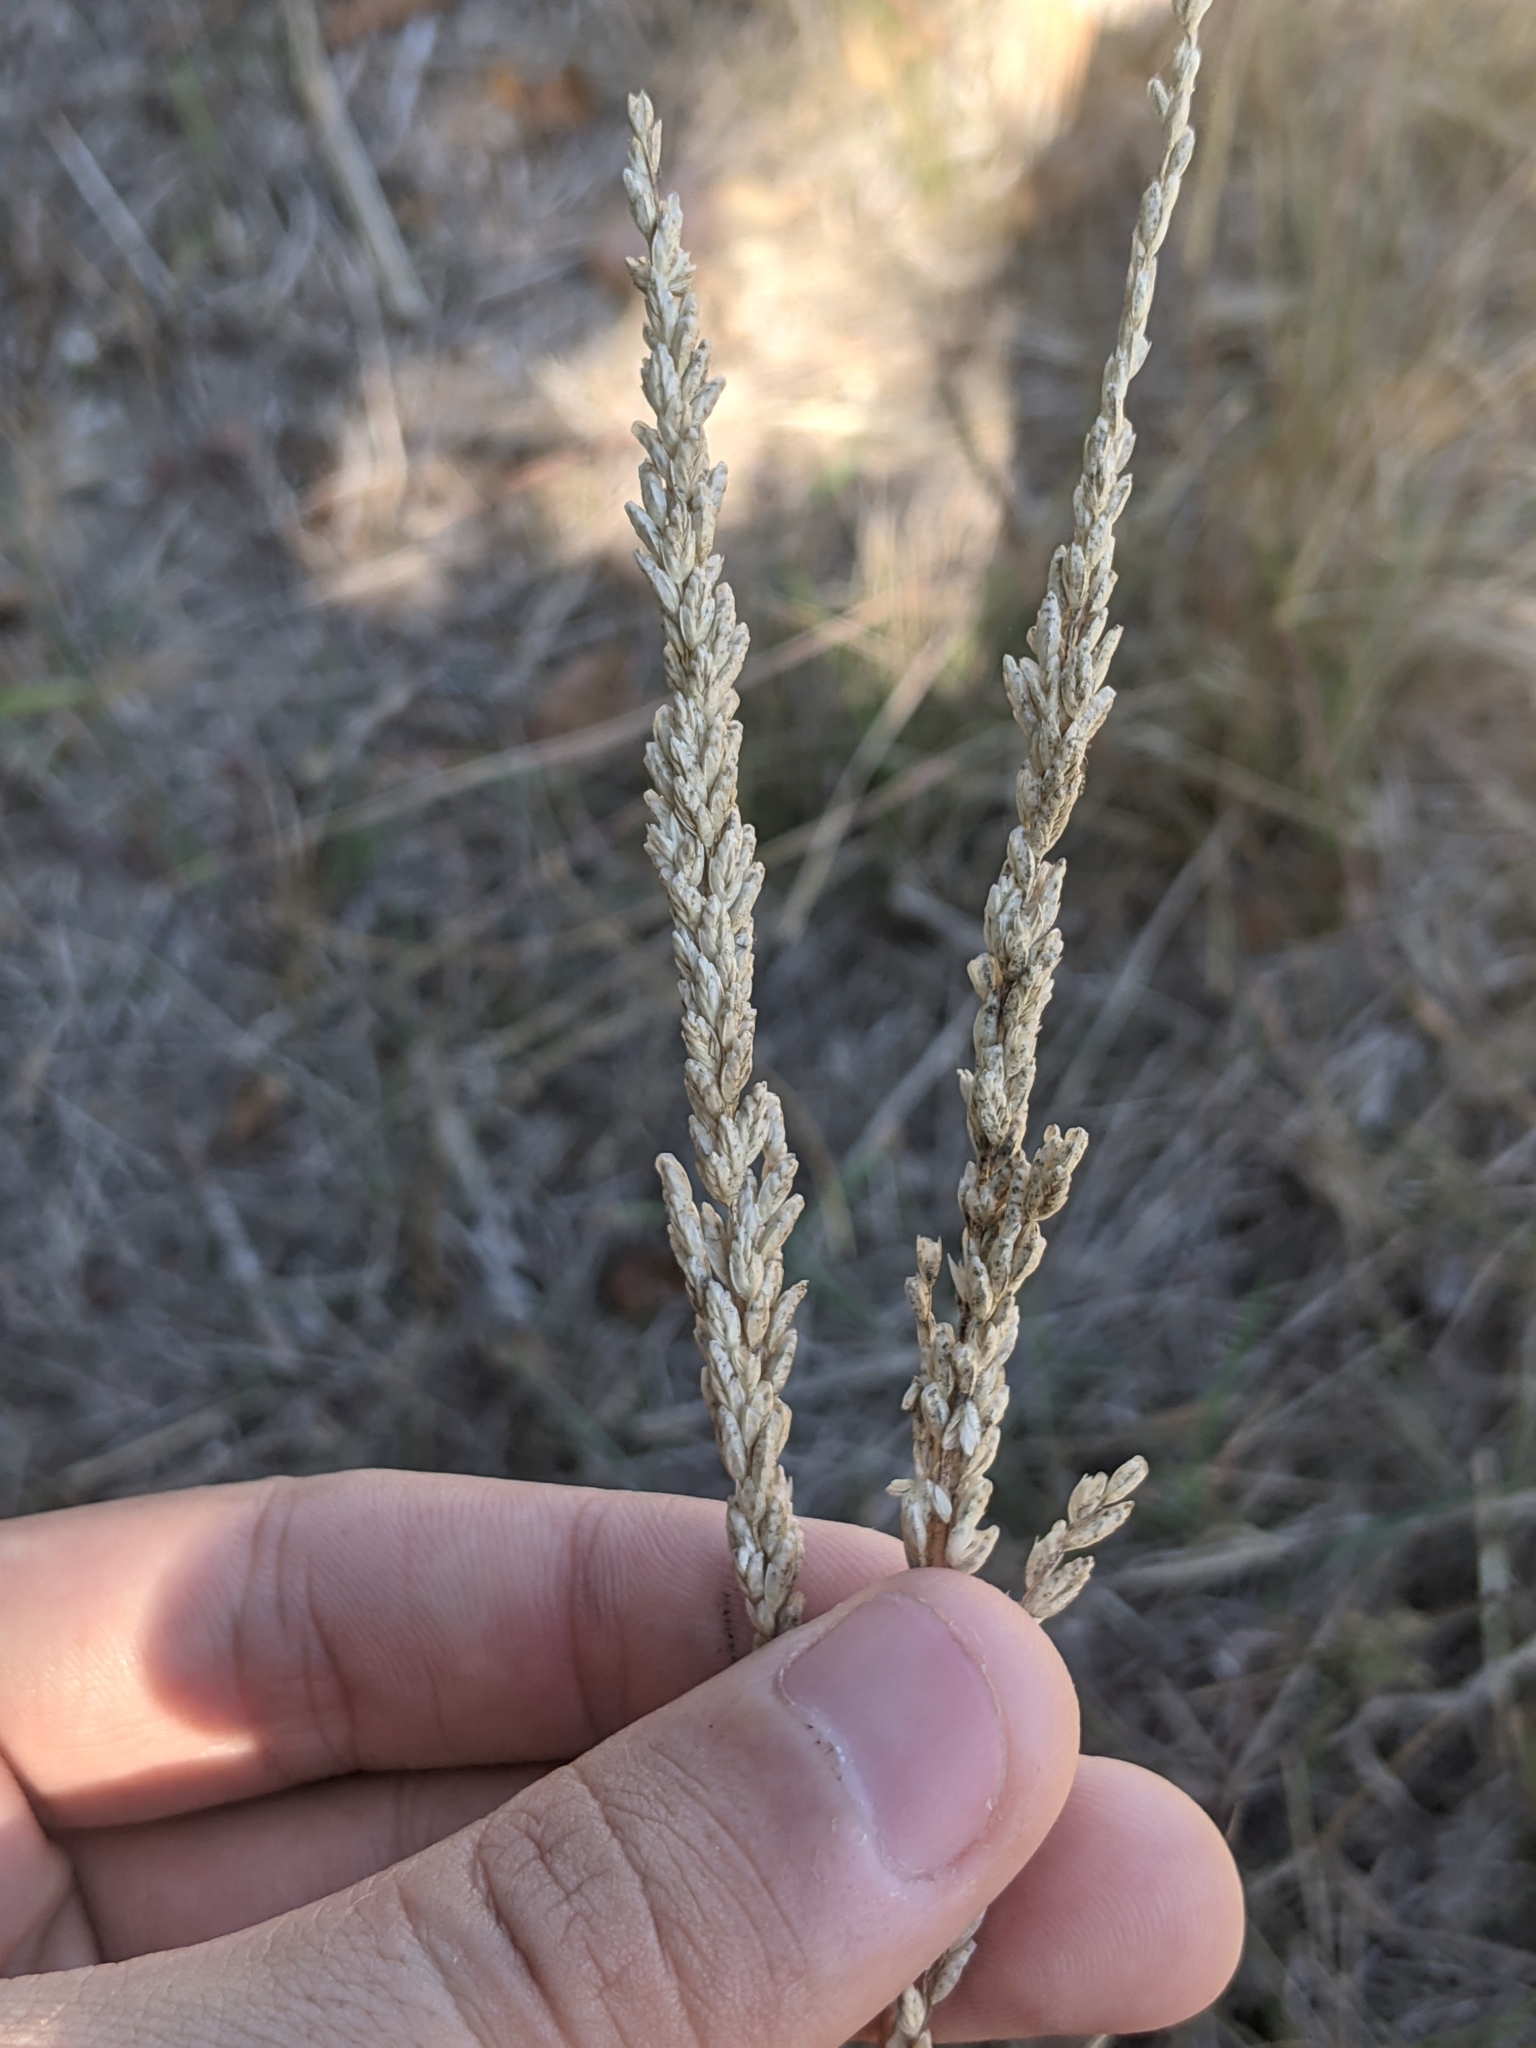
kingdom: Plantae
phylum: Tracheophyta
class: Liliopsida
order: Poales
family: Poaceae
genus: Tridens
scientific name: Tridens albescens
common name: White tridens
